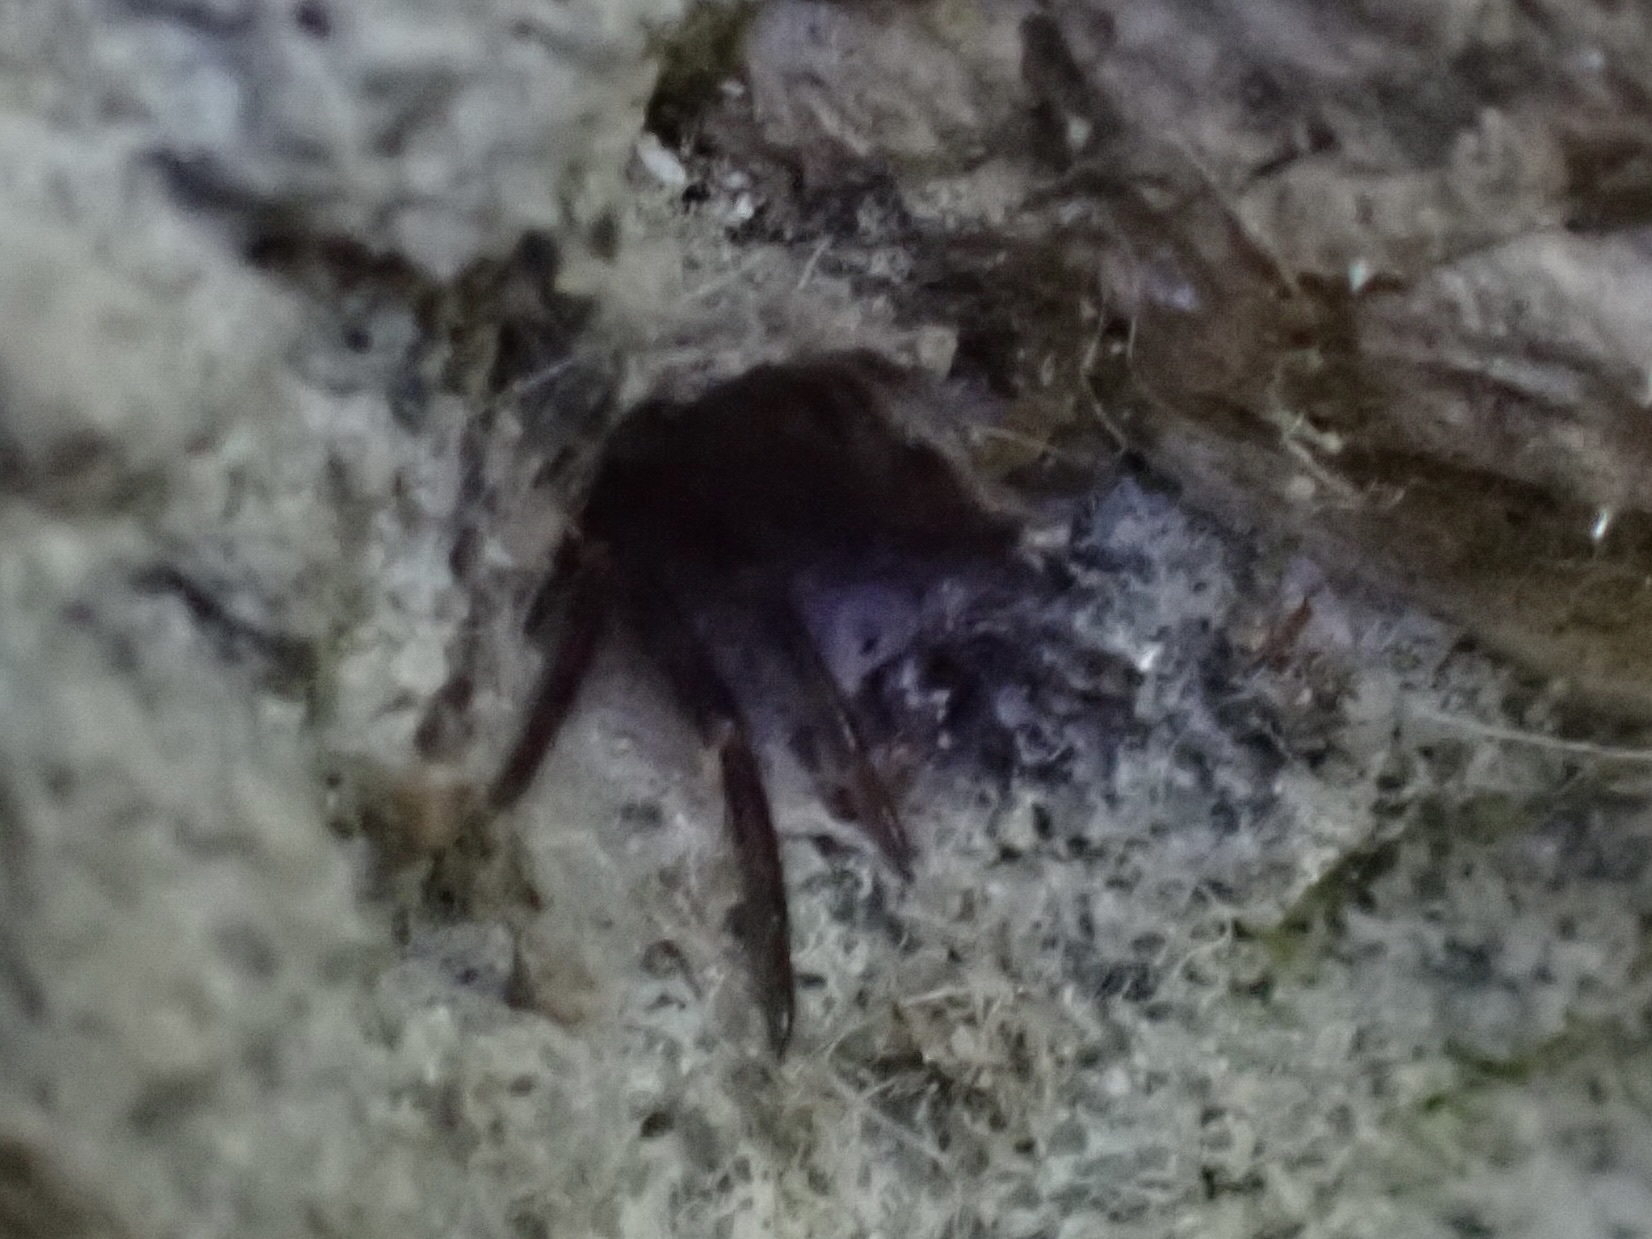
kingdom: Animalia
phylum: Arthropoda
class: Arachnida
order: Araneae
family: Segestriidae
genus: Segestria
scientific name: Segestria pacifica
